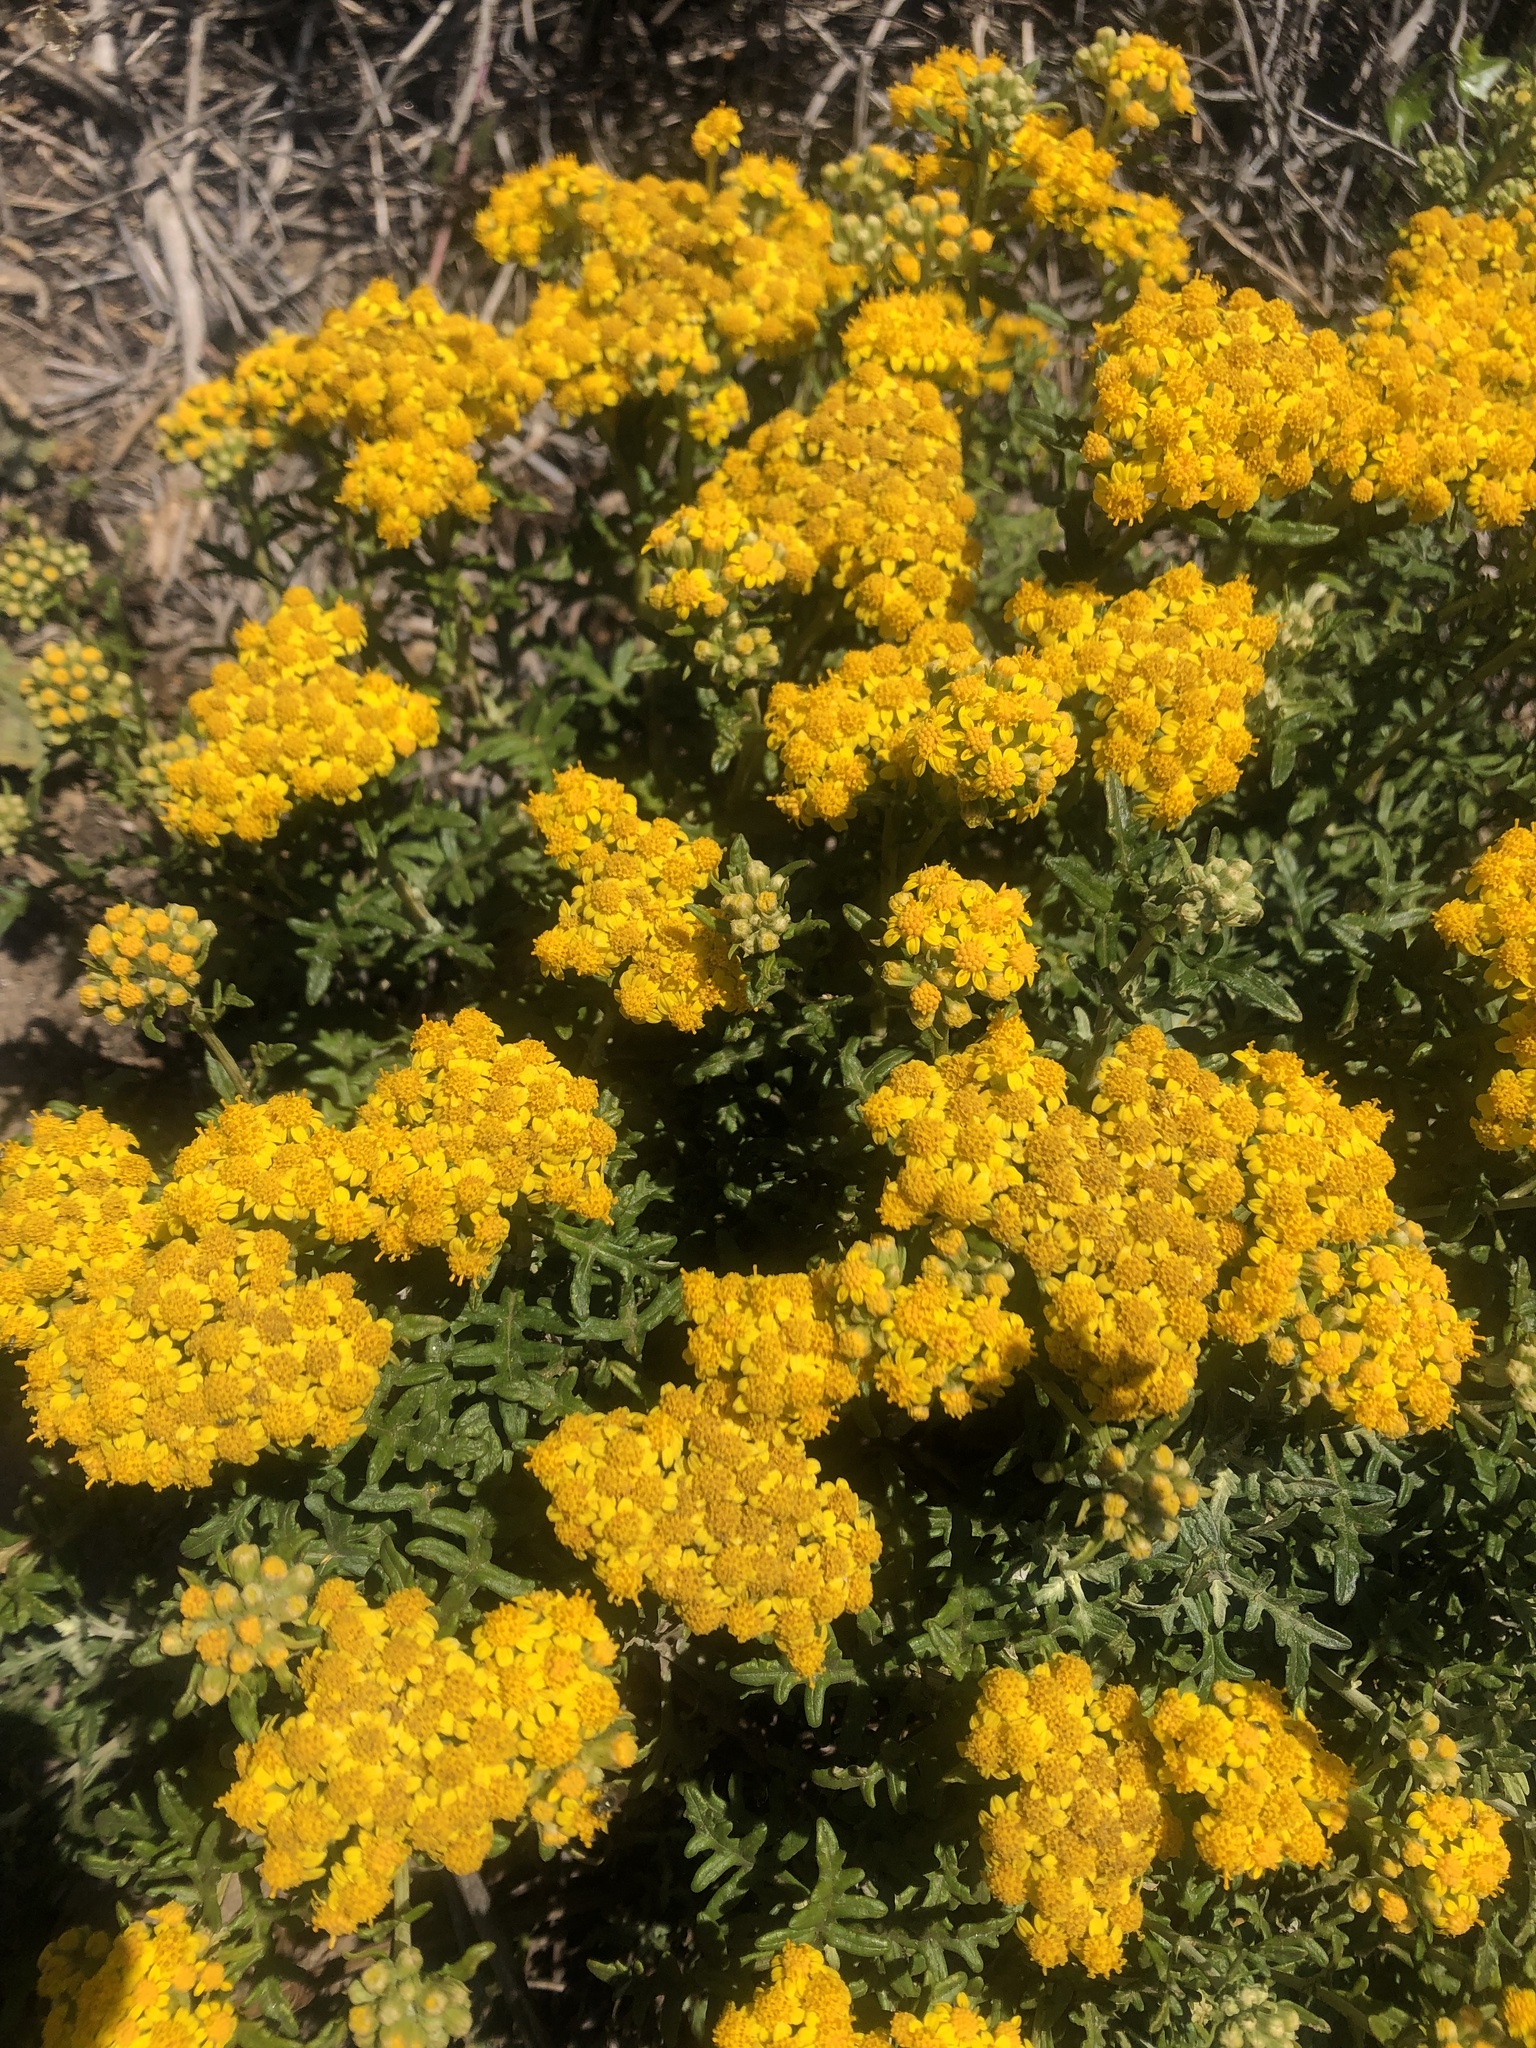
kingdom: Plantae
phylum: Tracheophyta
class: Magnoliopsida
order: Asterales
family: Asteraceae
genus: Eriophyllum
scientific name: Eriophyllum staechadifolium
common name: Lizardtail
